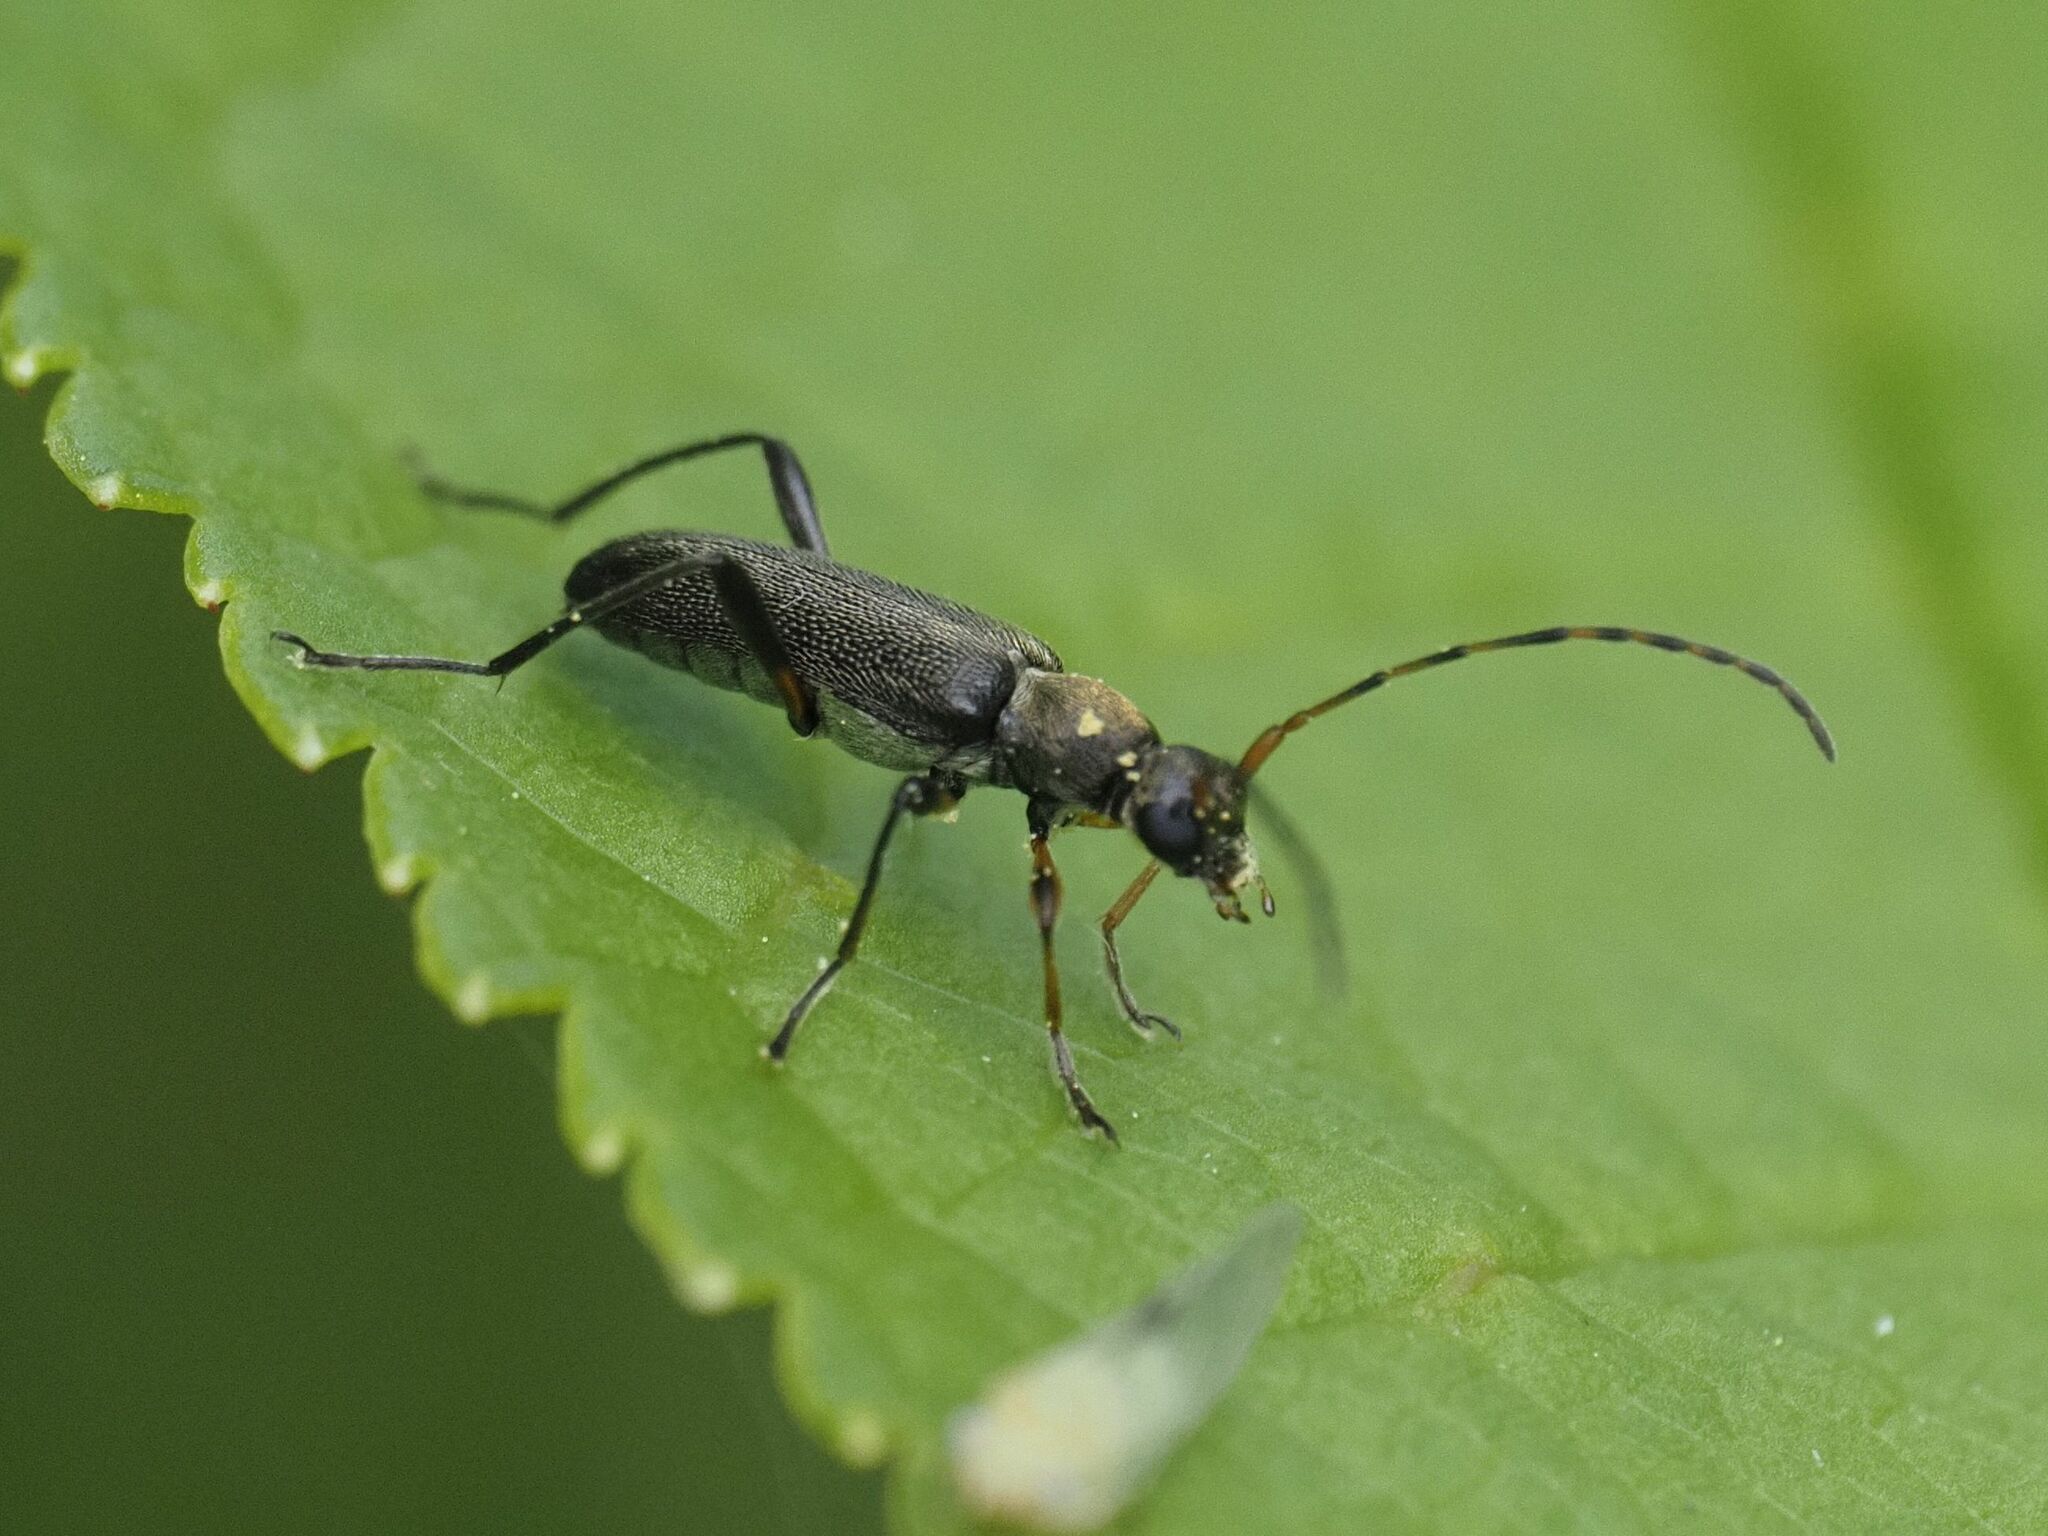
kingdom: Animalia
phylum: Arthropoda
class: Insecta
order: Coleoptera
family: Cerambycidae
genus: Grammoptera
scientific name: Grammoptera ruficornis
